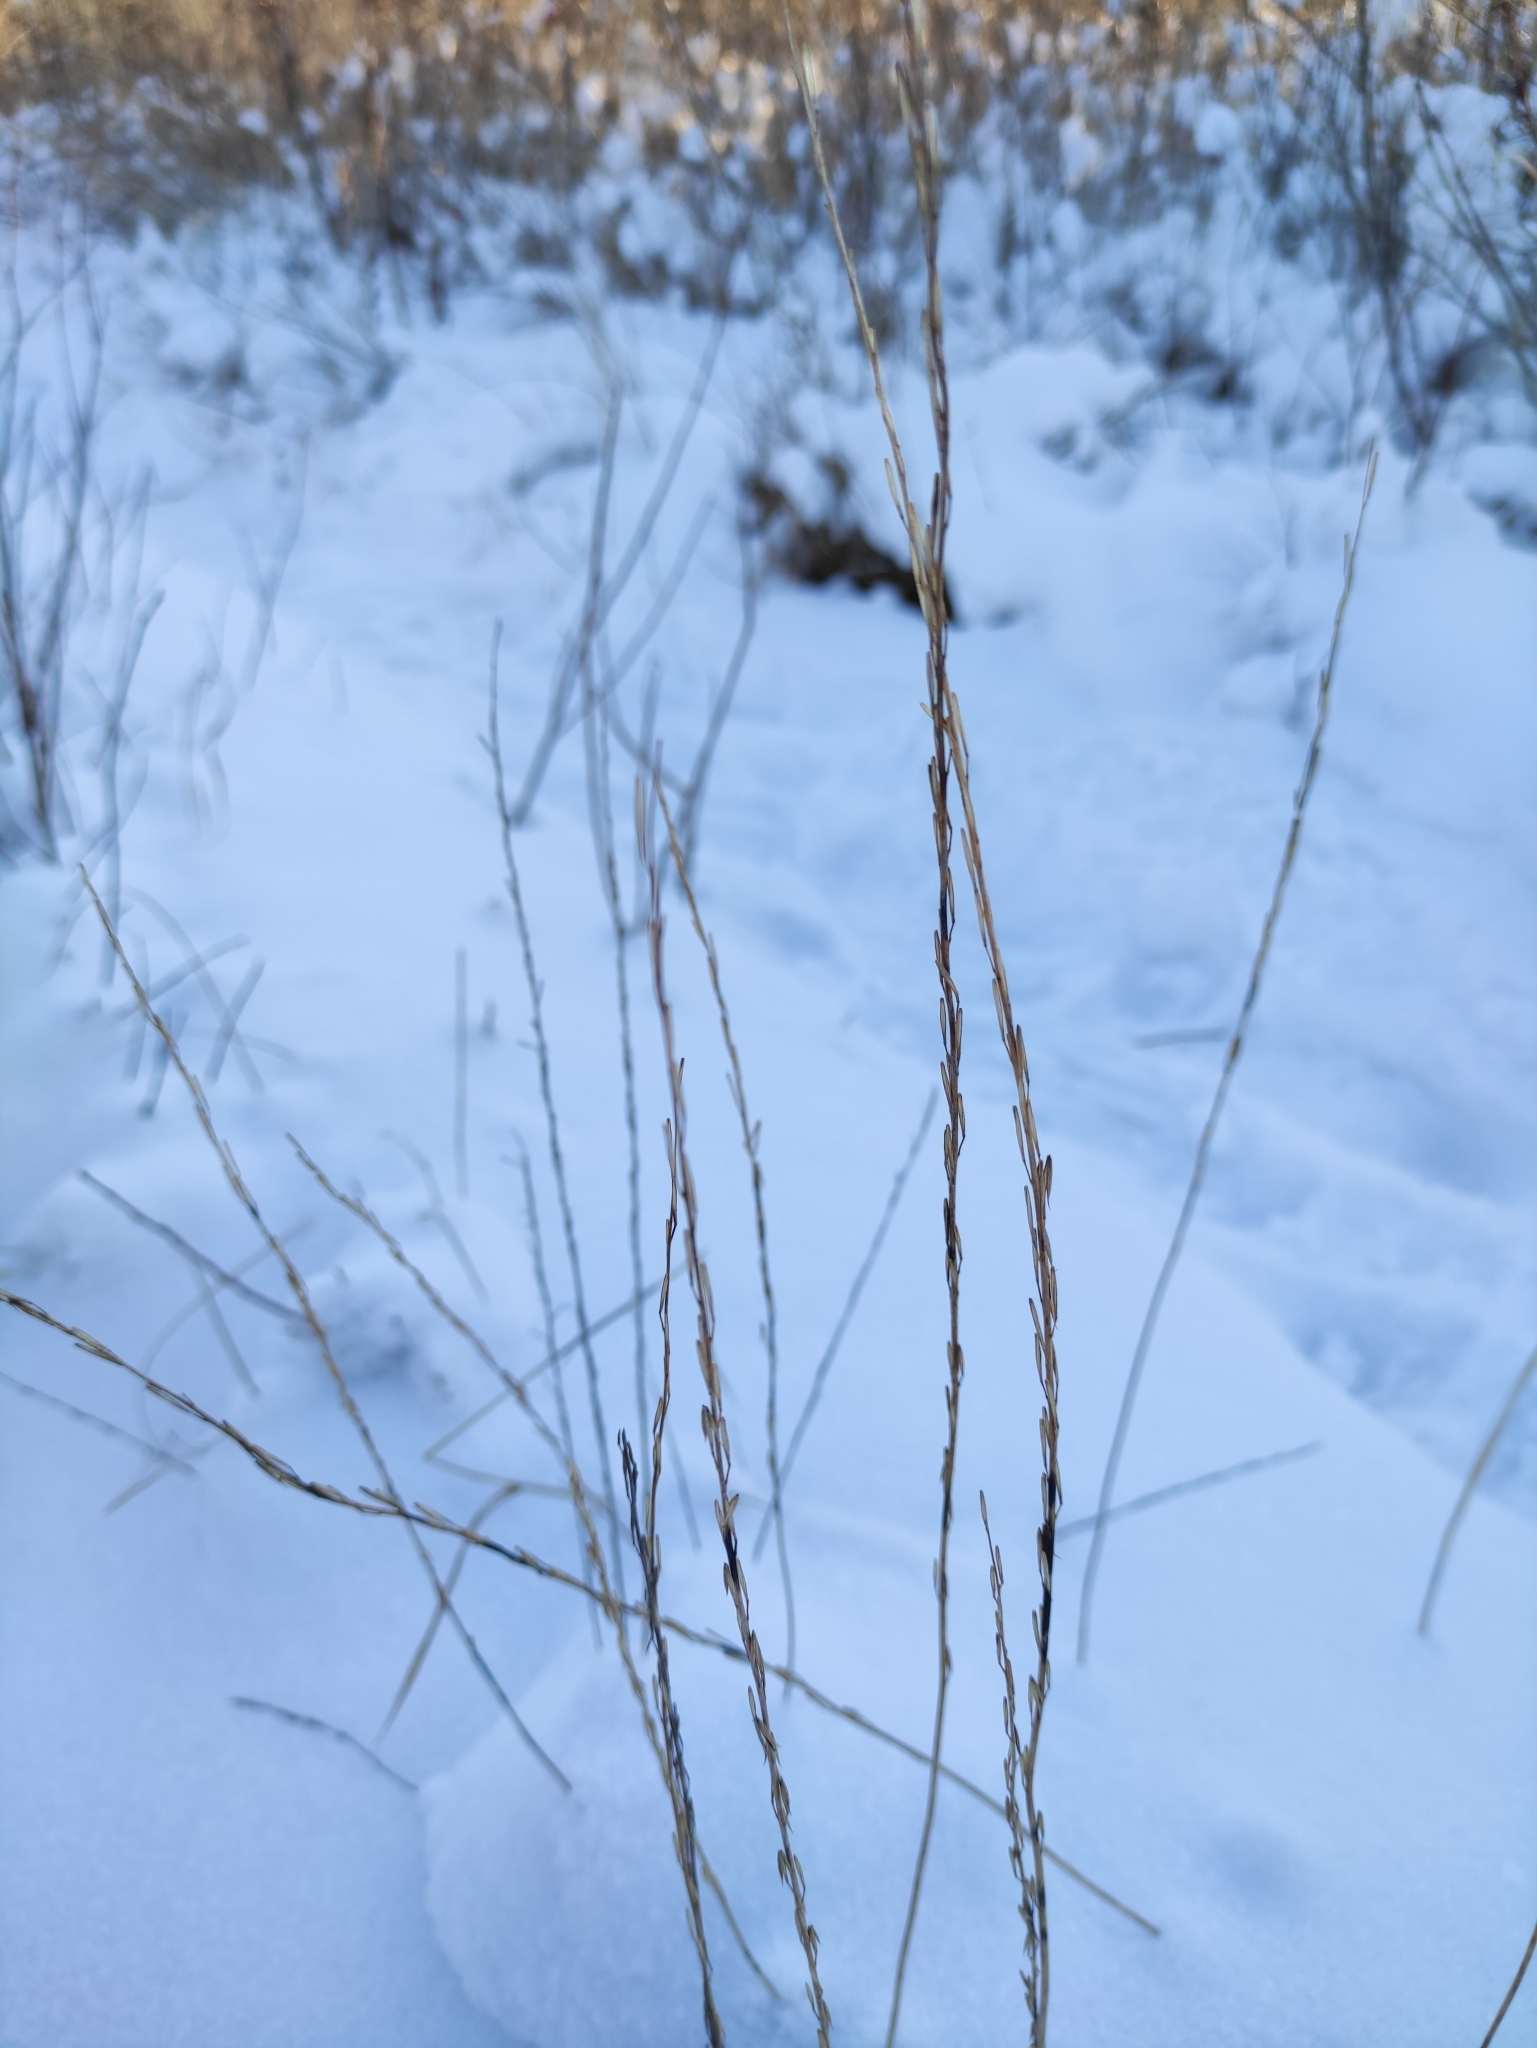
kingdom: Plantae
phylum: Tracheophyta
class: Liliopsida
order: Alismatales
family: Juncaginaceae
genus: Triglochin
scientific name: Triglochin palustris
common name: Marsh arrowgrass
